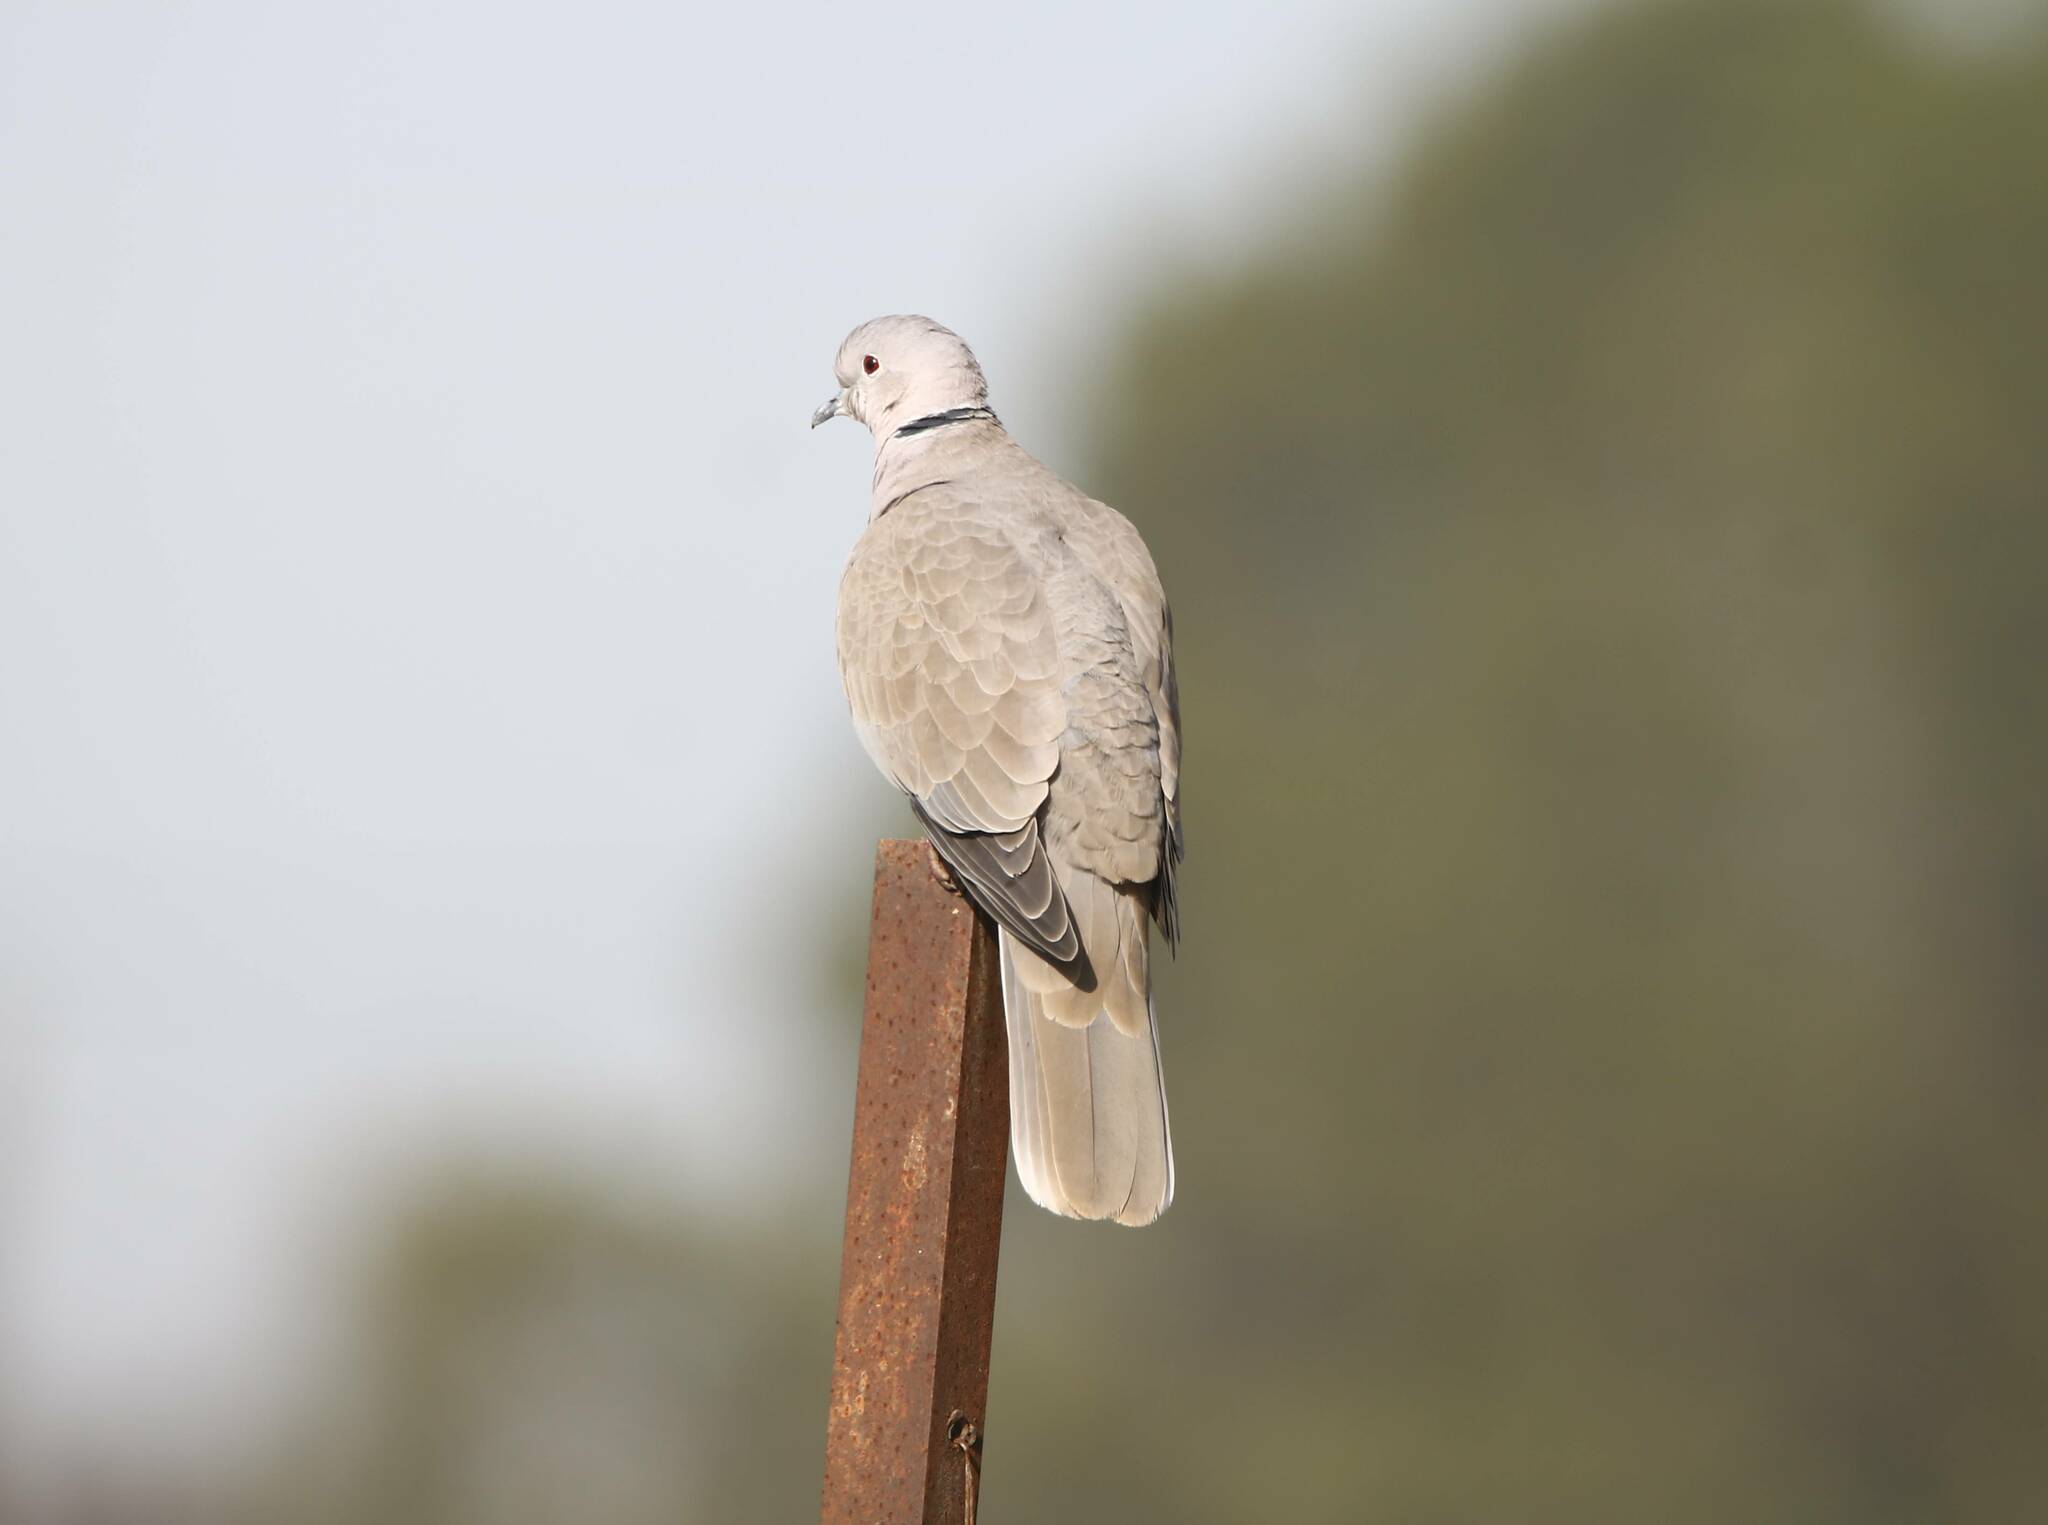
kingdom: Animalia
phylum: Chordata
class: Aves
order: Columbiformes
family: Columbidae
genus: Streptopelia
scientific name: Streptopelia decaocto
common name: Eurasian collared dove
